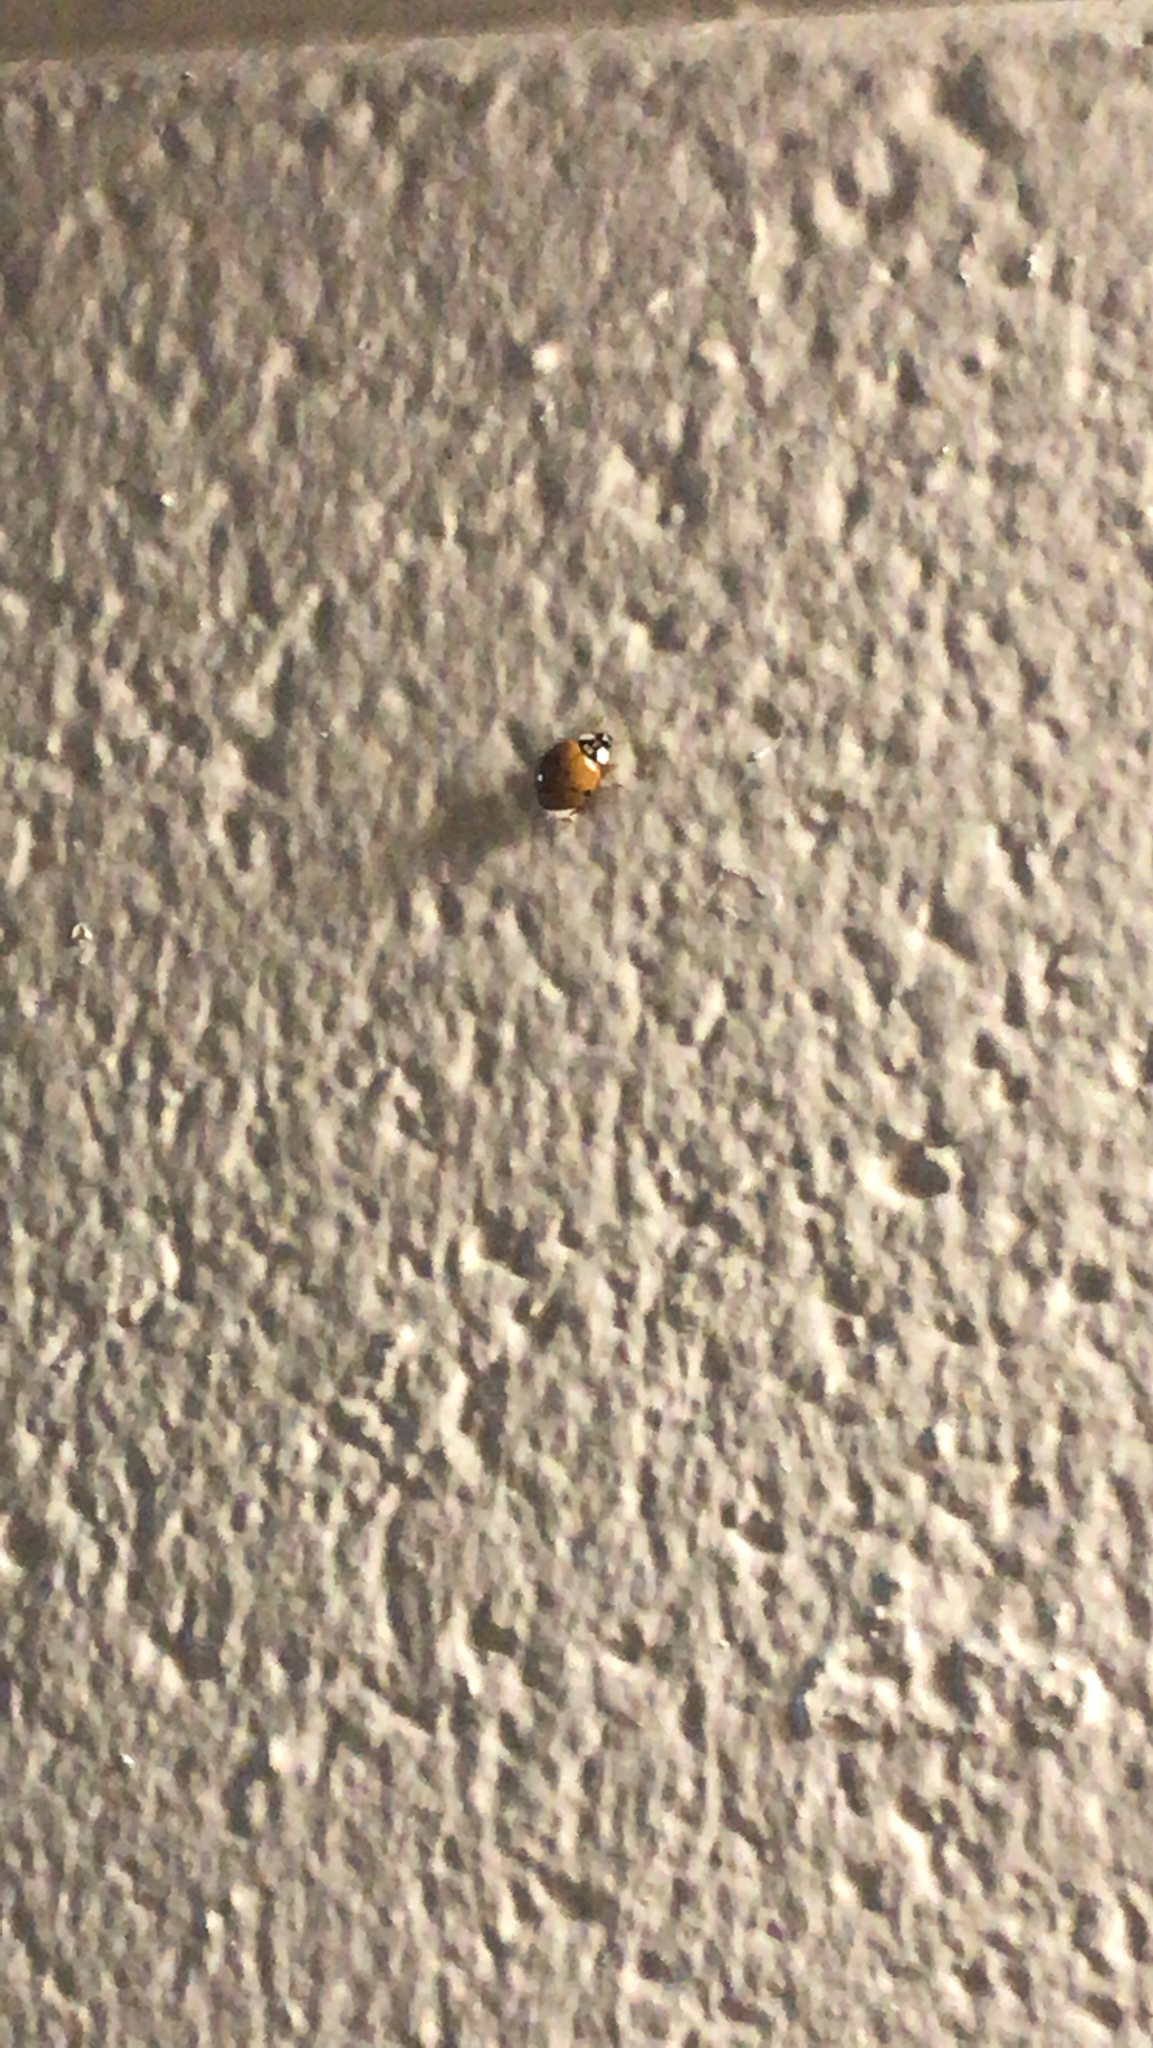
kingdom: Animalia
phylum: Arthropoda
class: Insecta
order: Coleoptera
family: Coccinellidae
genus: Harmonia
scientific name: Harmonia axyridis
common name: Harlequin ladybird
